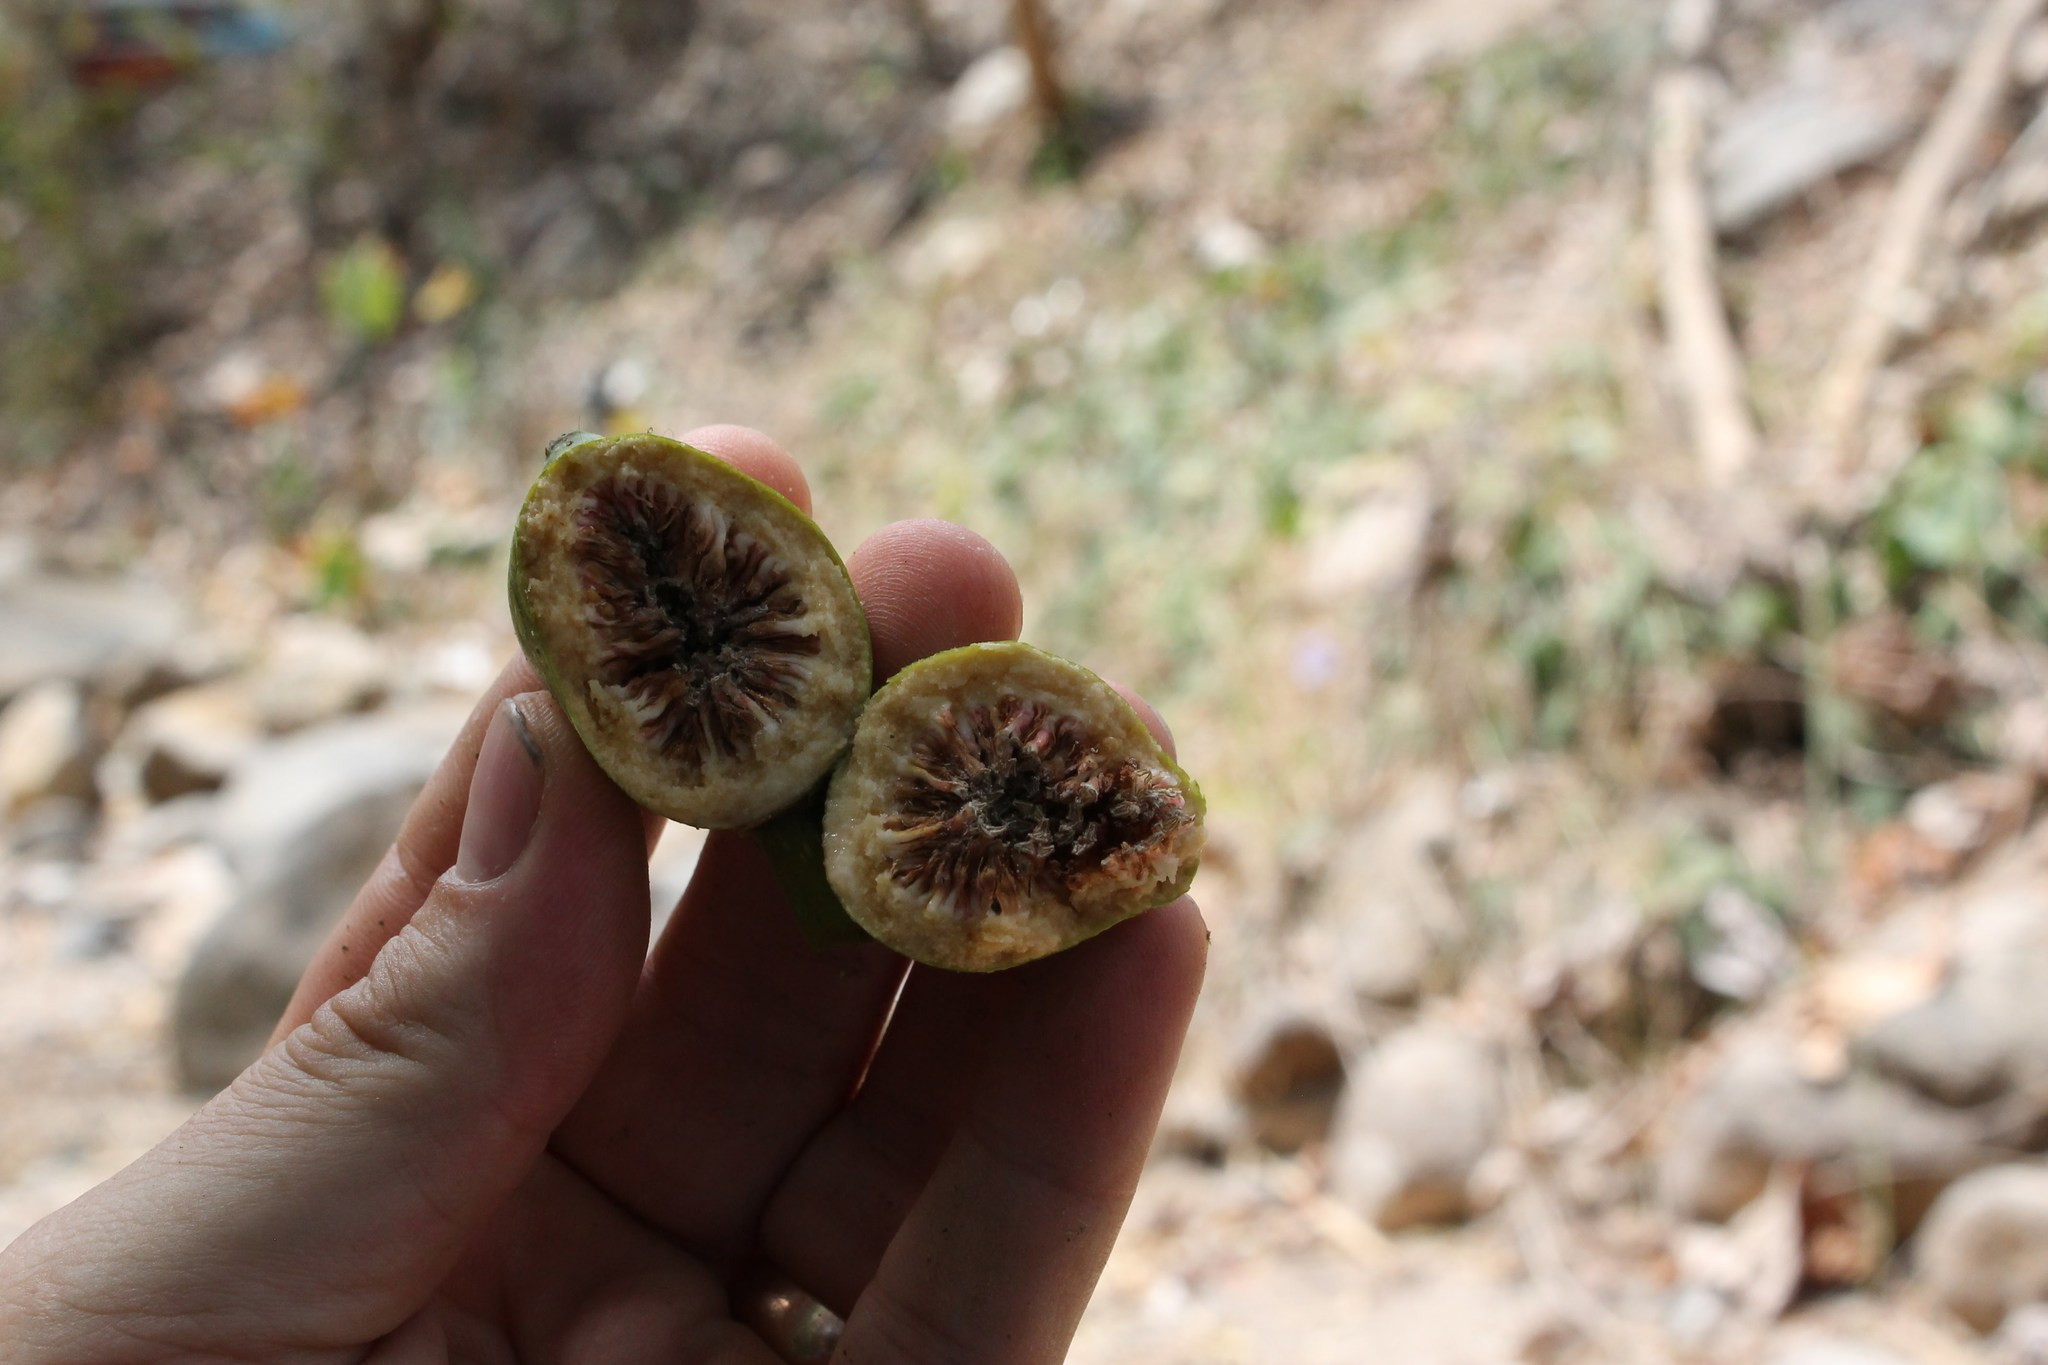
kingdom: Plantae
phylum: Tracheophyta
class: Magnoliopsida
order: Rosales
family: Moraceae
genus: Ficus
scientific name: Ficus insipida
